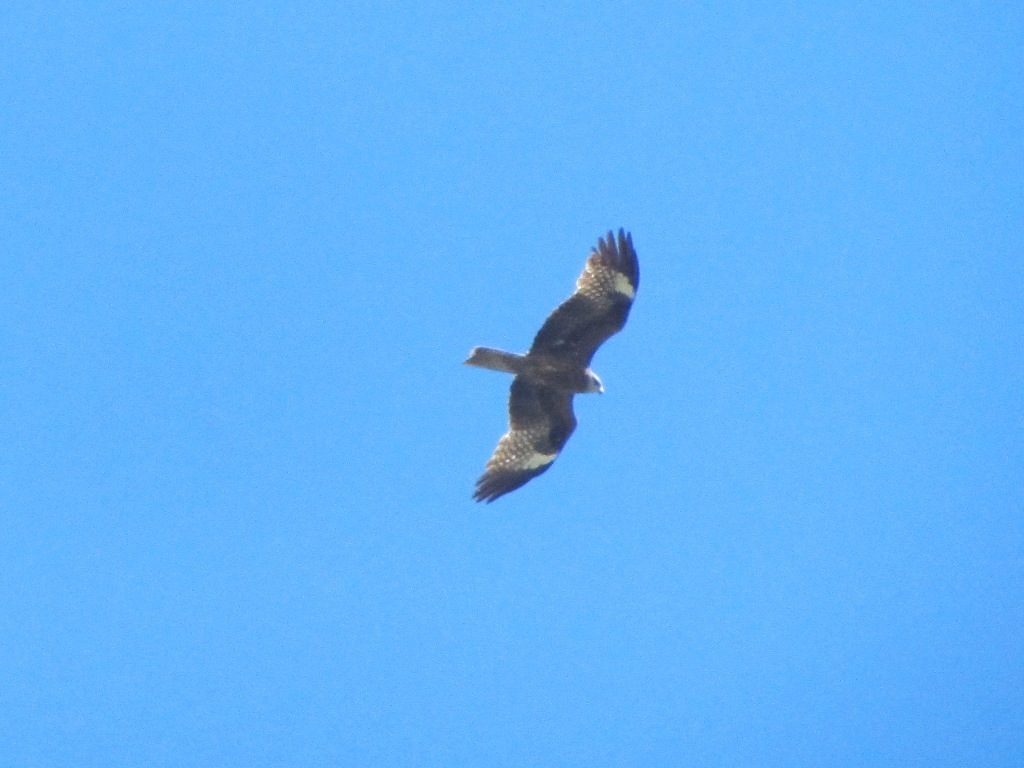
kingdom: Animalia
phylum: Chordata
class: Aves
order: Accipitriformes
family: Accipitridae
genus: Milvus
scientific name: Milvus migrans
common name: Black kite
